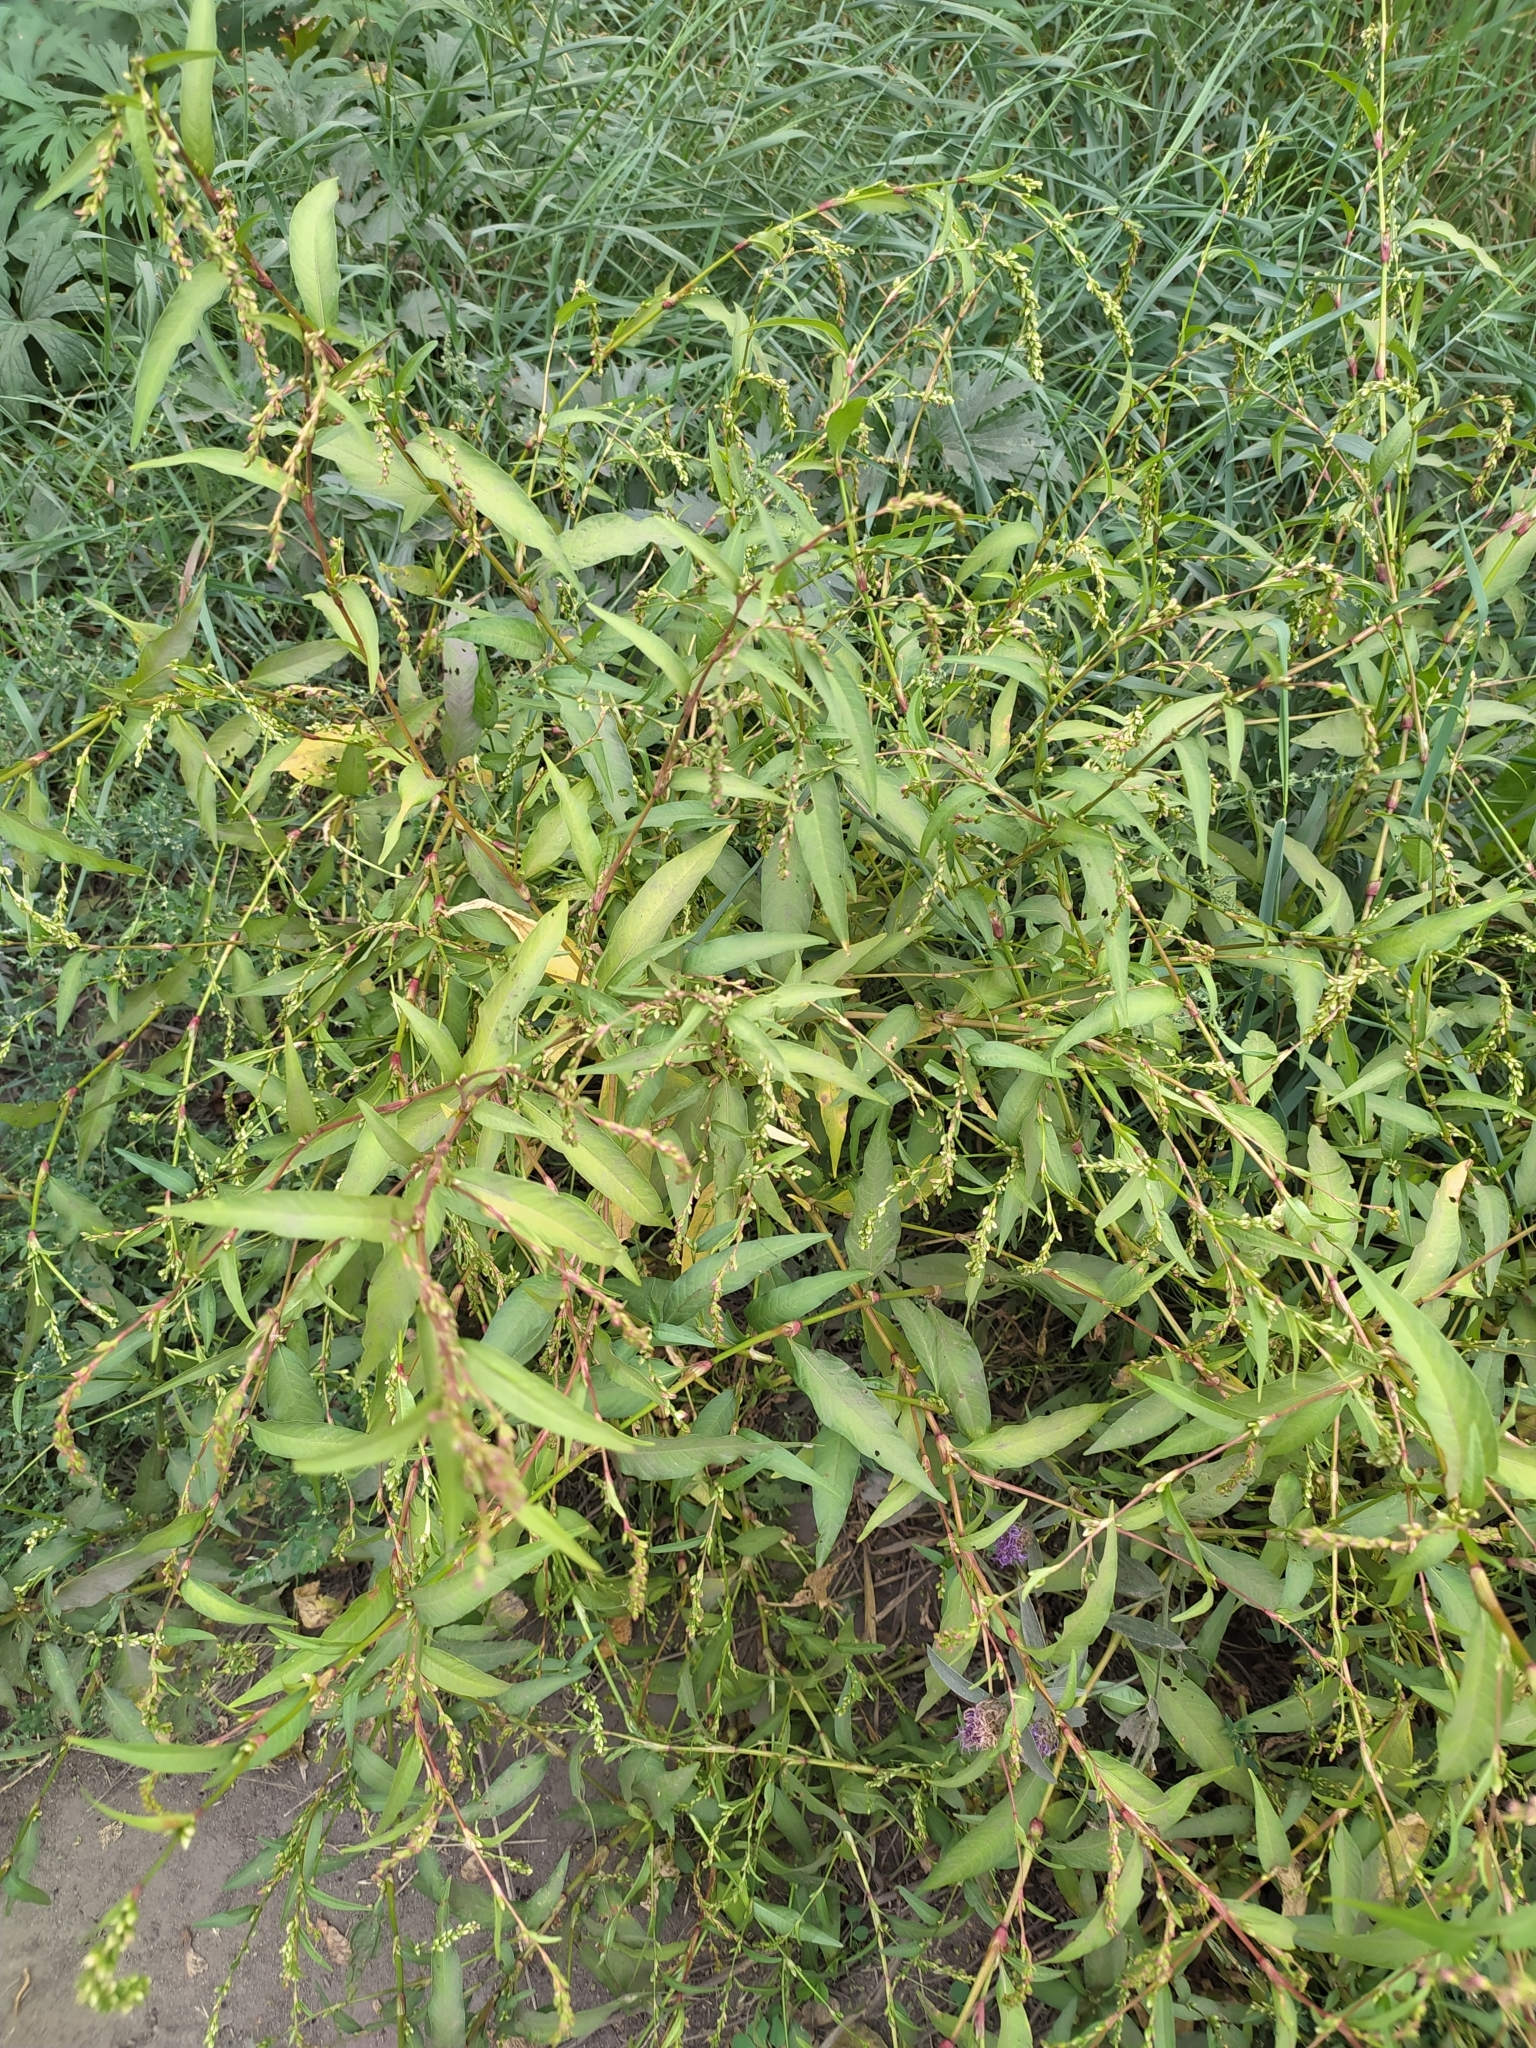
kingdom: Plantae
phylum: Tracheophyta
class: Magnoliopsida
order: Caryophyllales
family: Polygonaceae
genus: Persicaria
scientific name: Persicaria hydropiper
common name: Water-pepper
